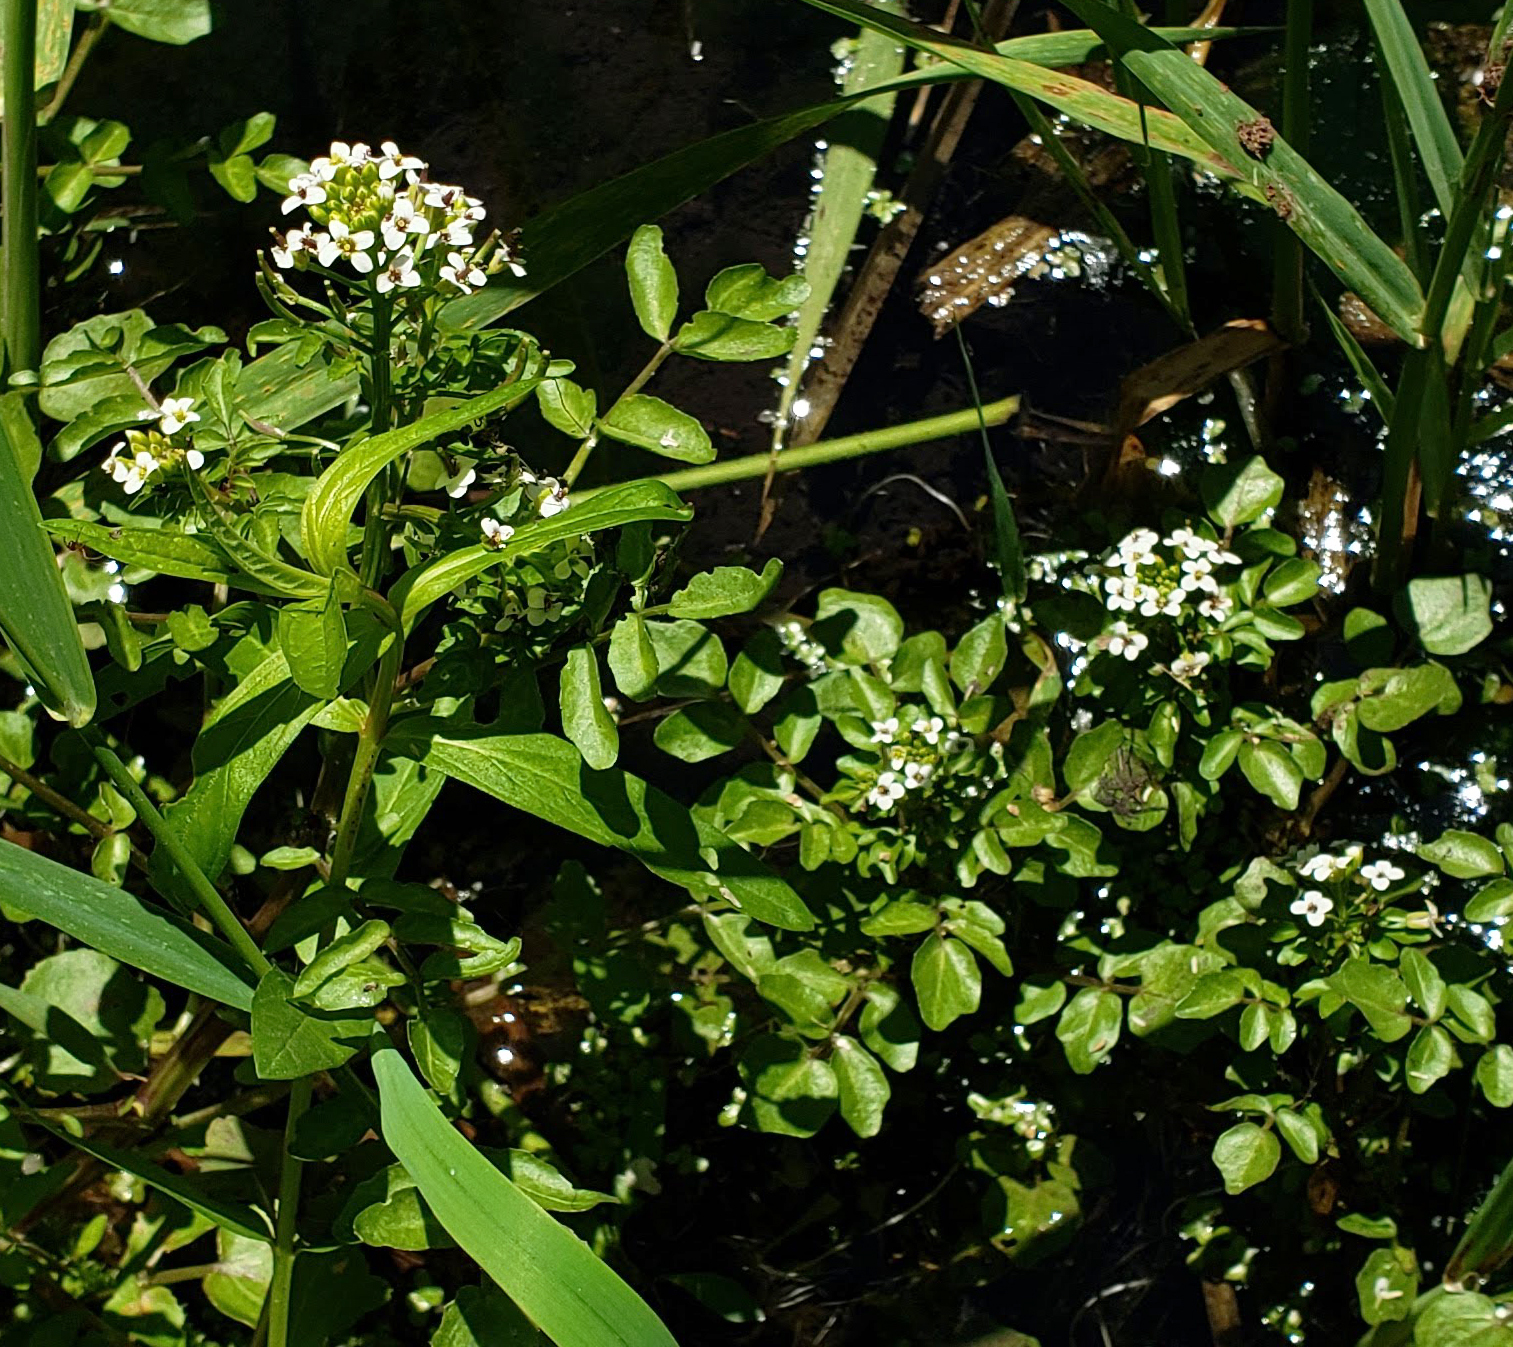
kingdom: Plantae
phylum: Tracheophyta
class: Magnoliopsida
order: Brassicales
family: Brassicaceae
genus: Nasturtium
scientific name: Nasturtium officinale
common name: Watercress
